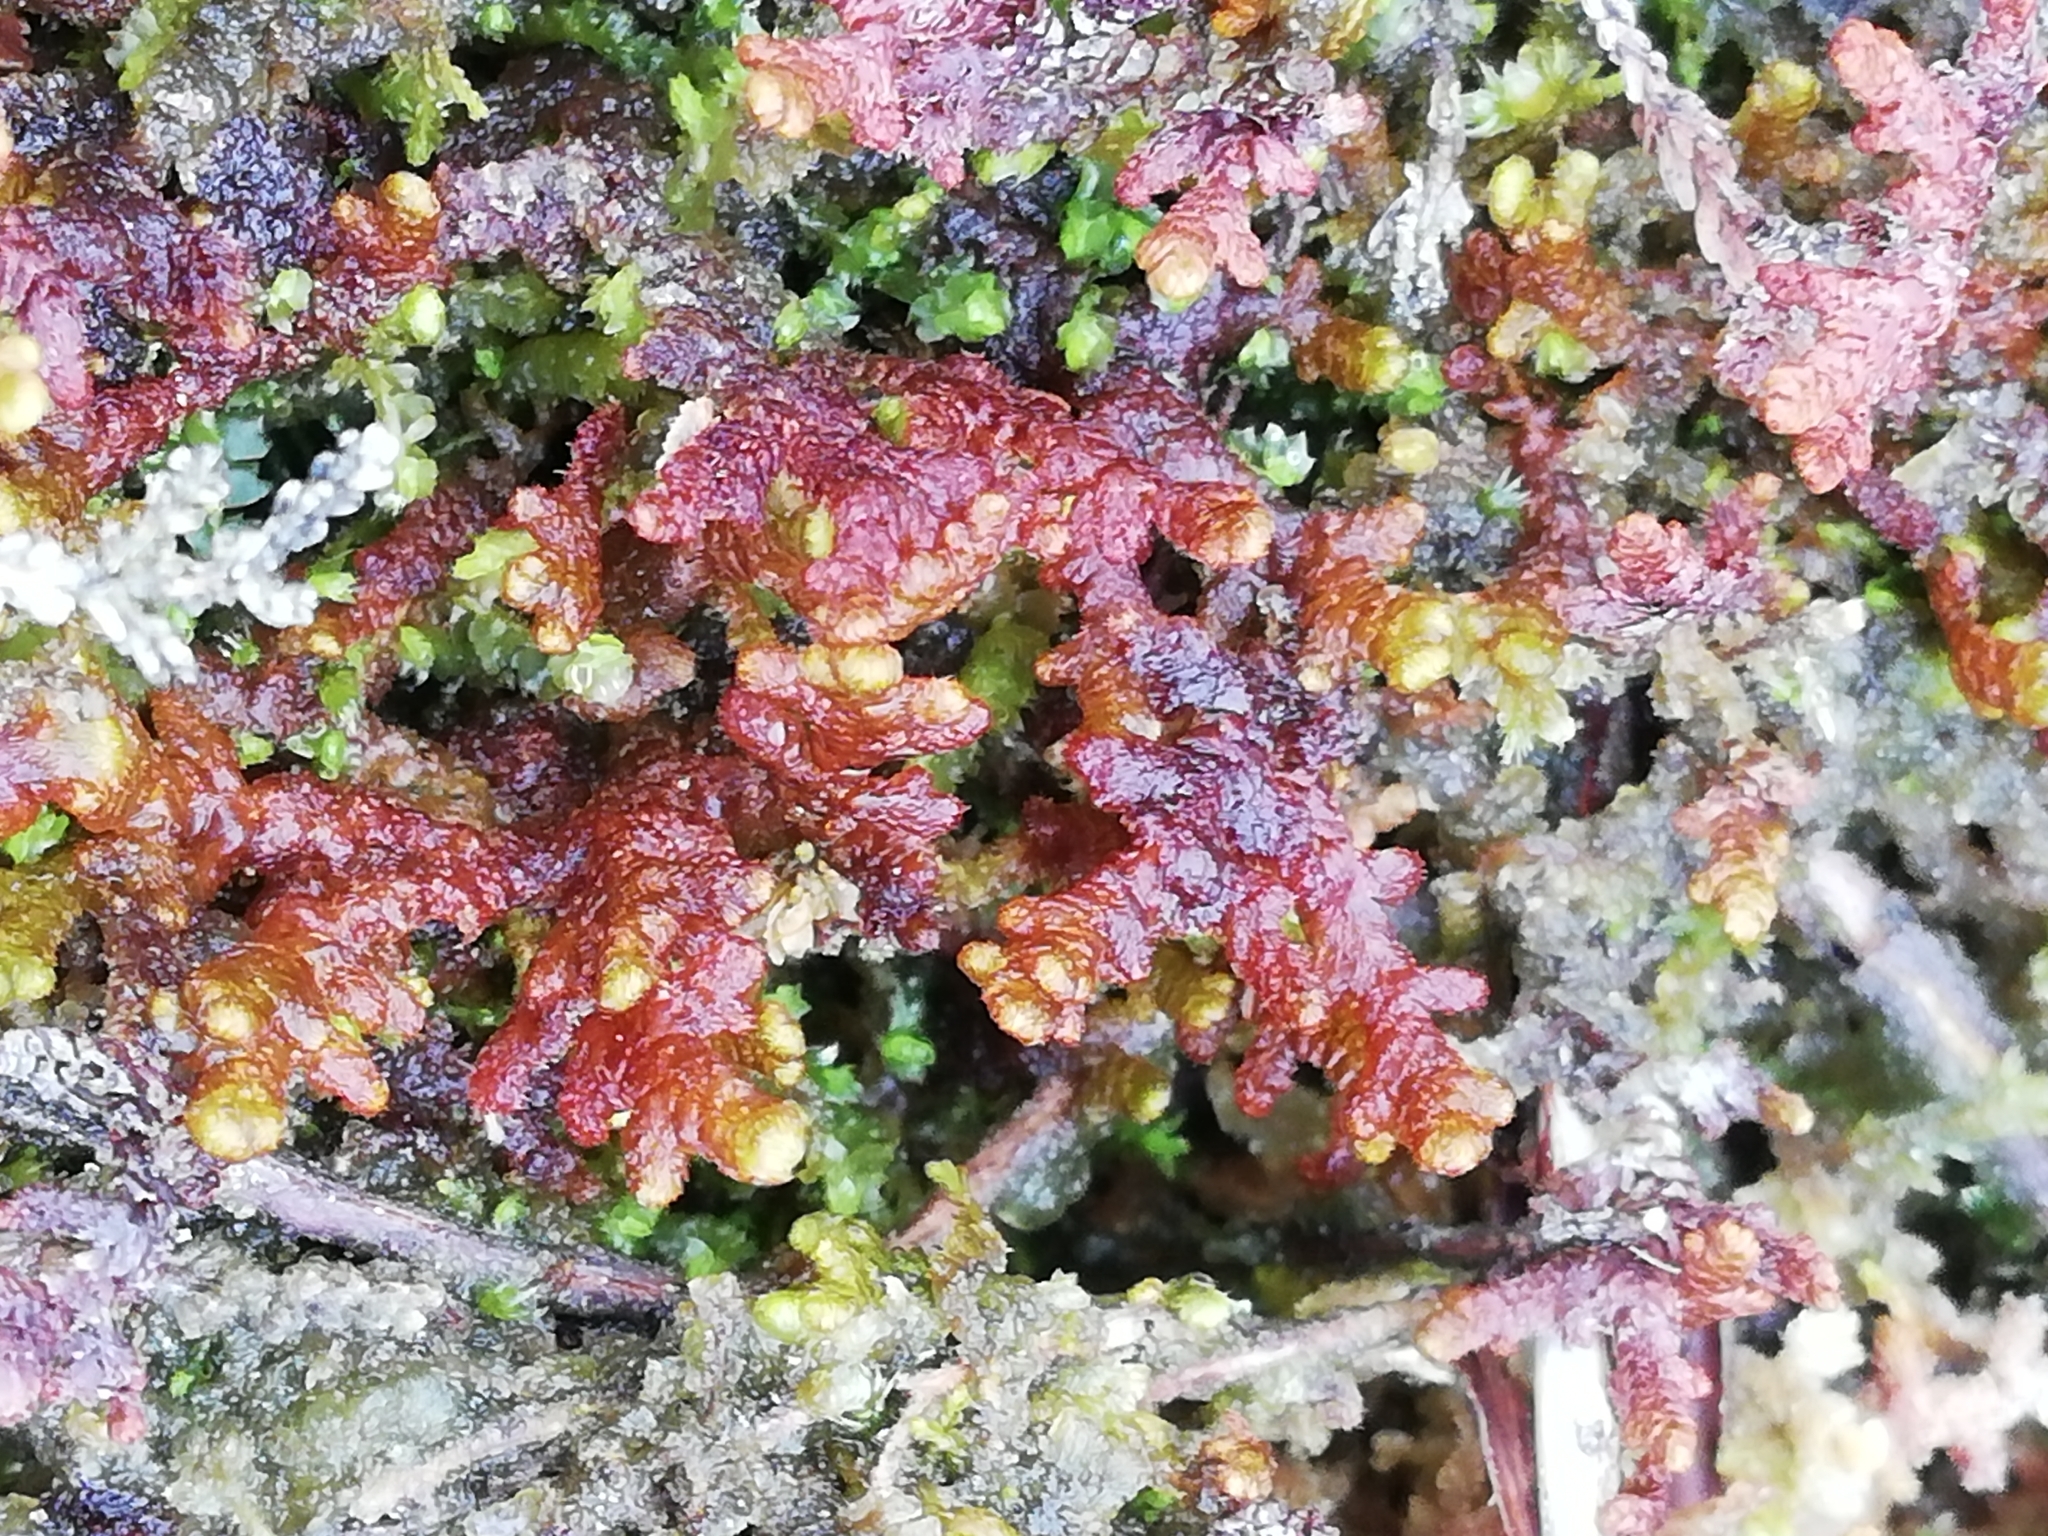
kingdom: Plantae
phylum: Marchantiophyta
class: Jungermanniopsida
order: Ptilidiales
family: Ptilidiaceae
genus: Ptilidium
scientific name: Ptilidium ciliare
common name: Ciliate fringewort
